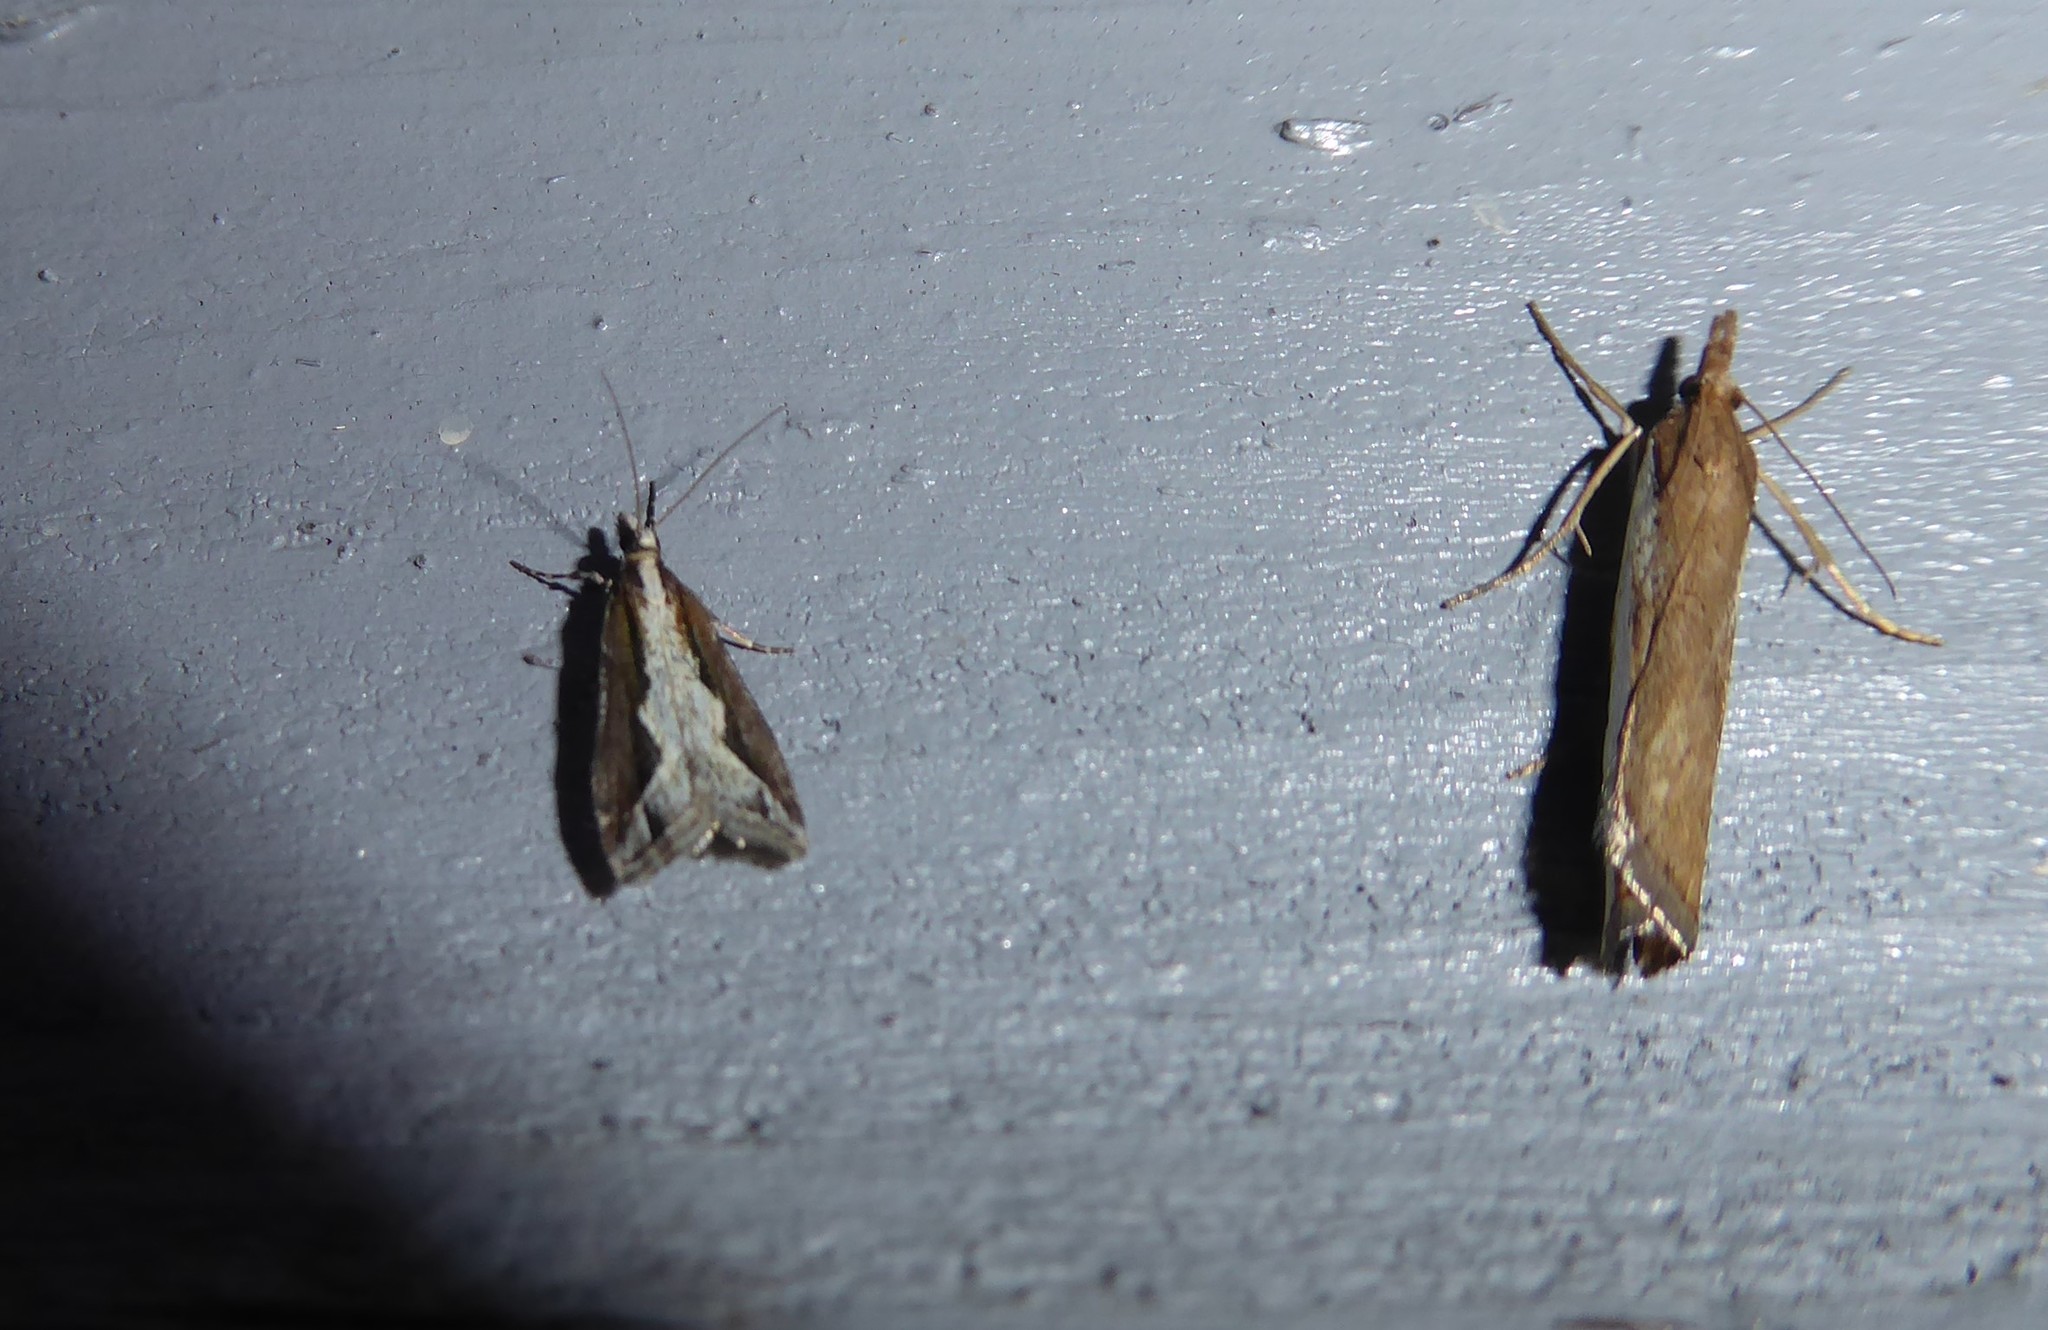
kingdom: Animalia
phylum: Arthropoda
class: Insecta
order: Lepidoptera
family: Crambidae
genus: Eudonia
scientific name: Eudonia steropaea
